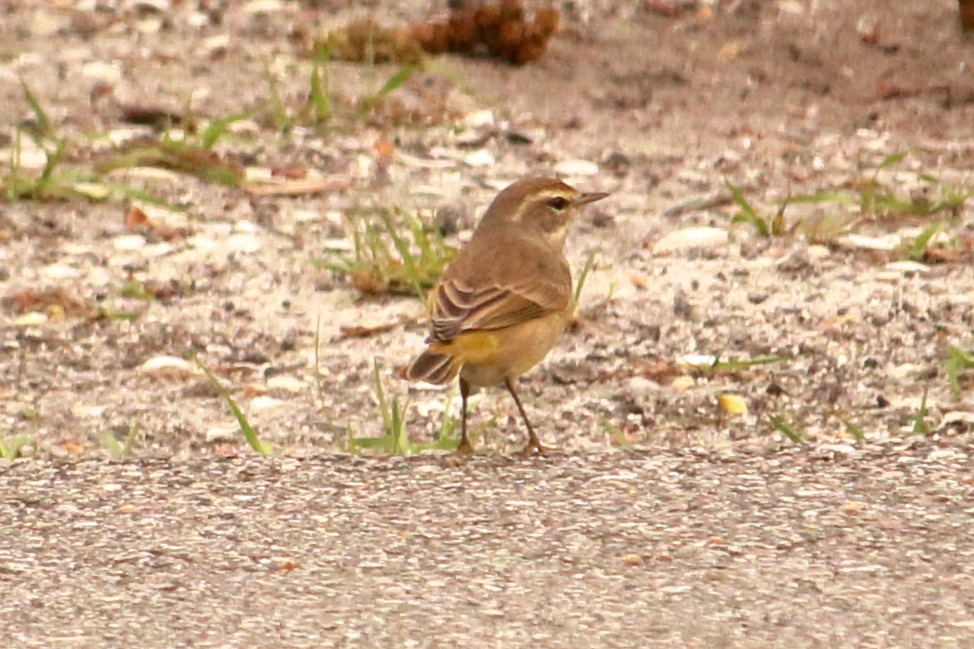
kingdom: Animalia
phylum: Chordata
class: Aves
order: Passeriformes
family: Parulidae
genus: Setophaga
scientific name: Setophaga palmarum
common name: Palm warbler
